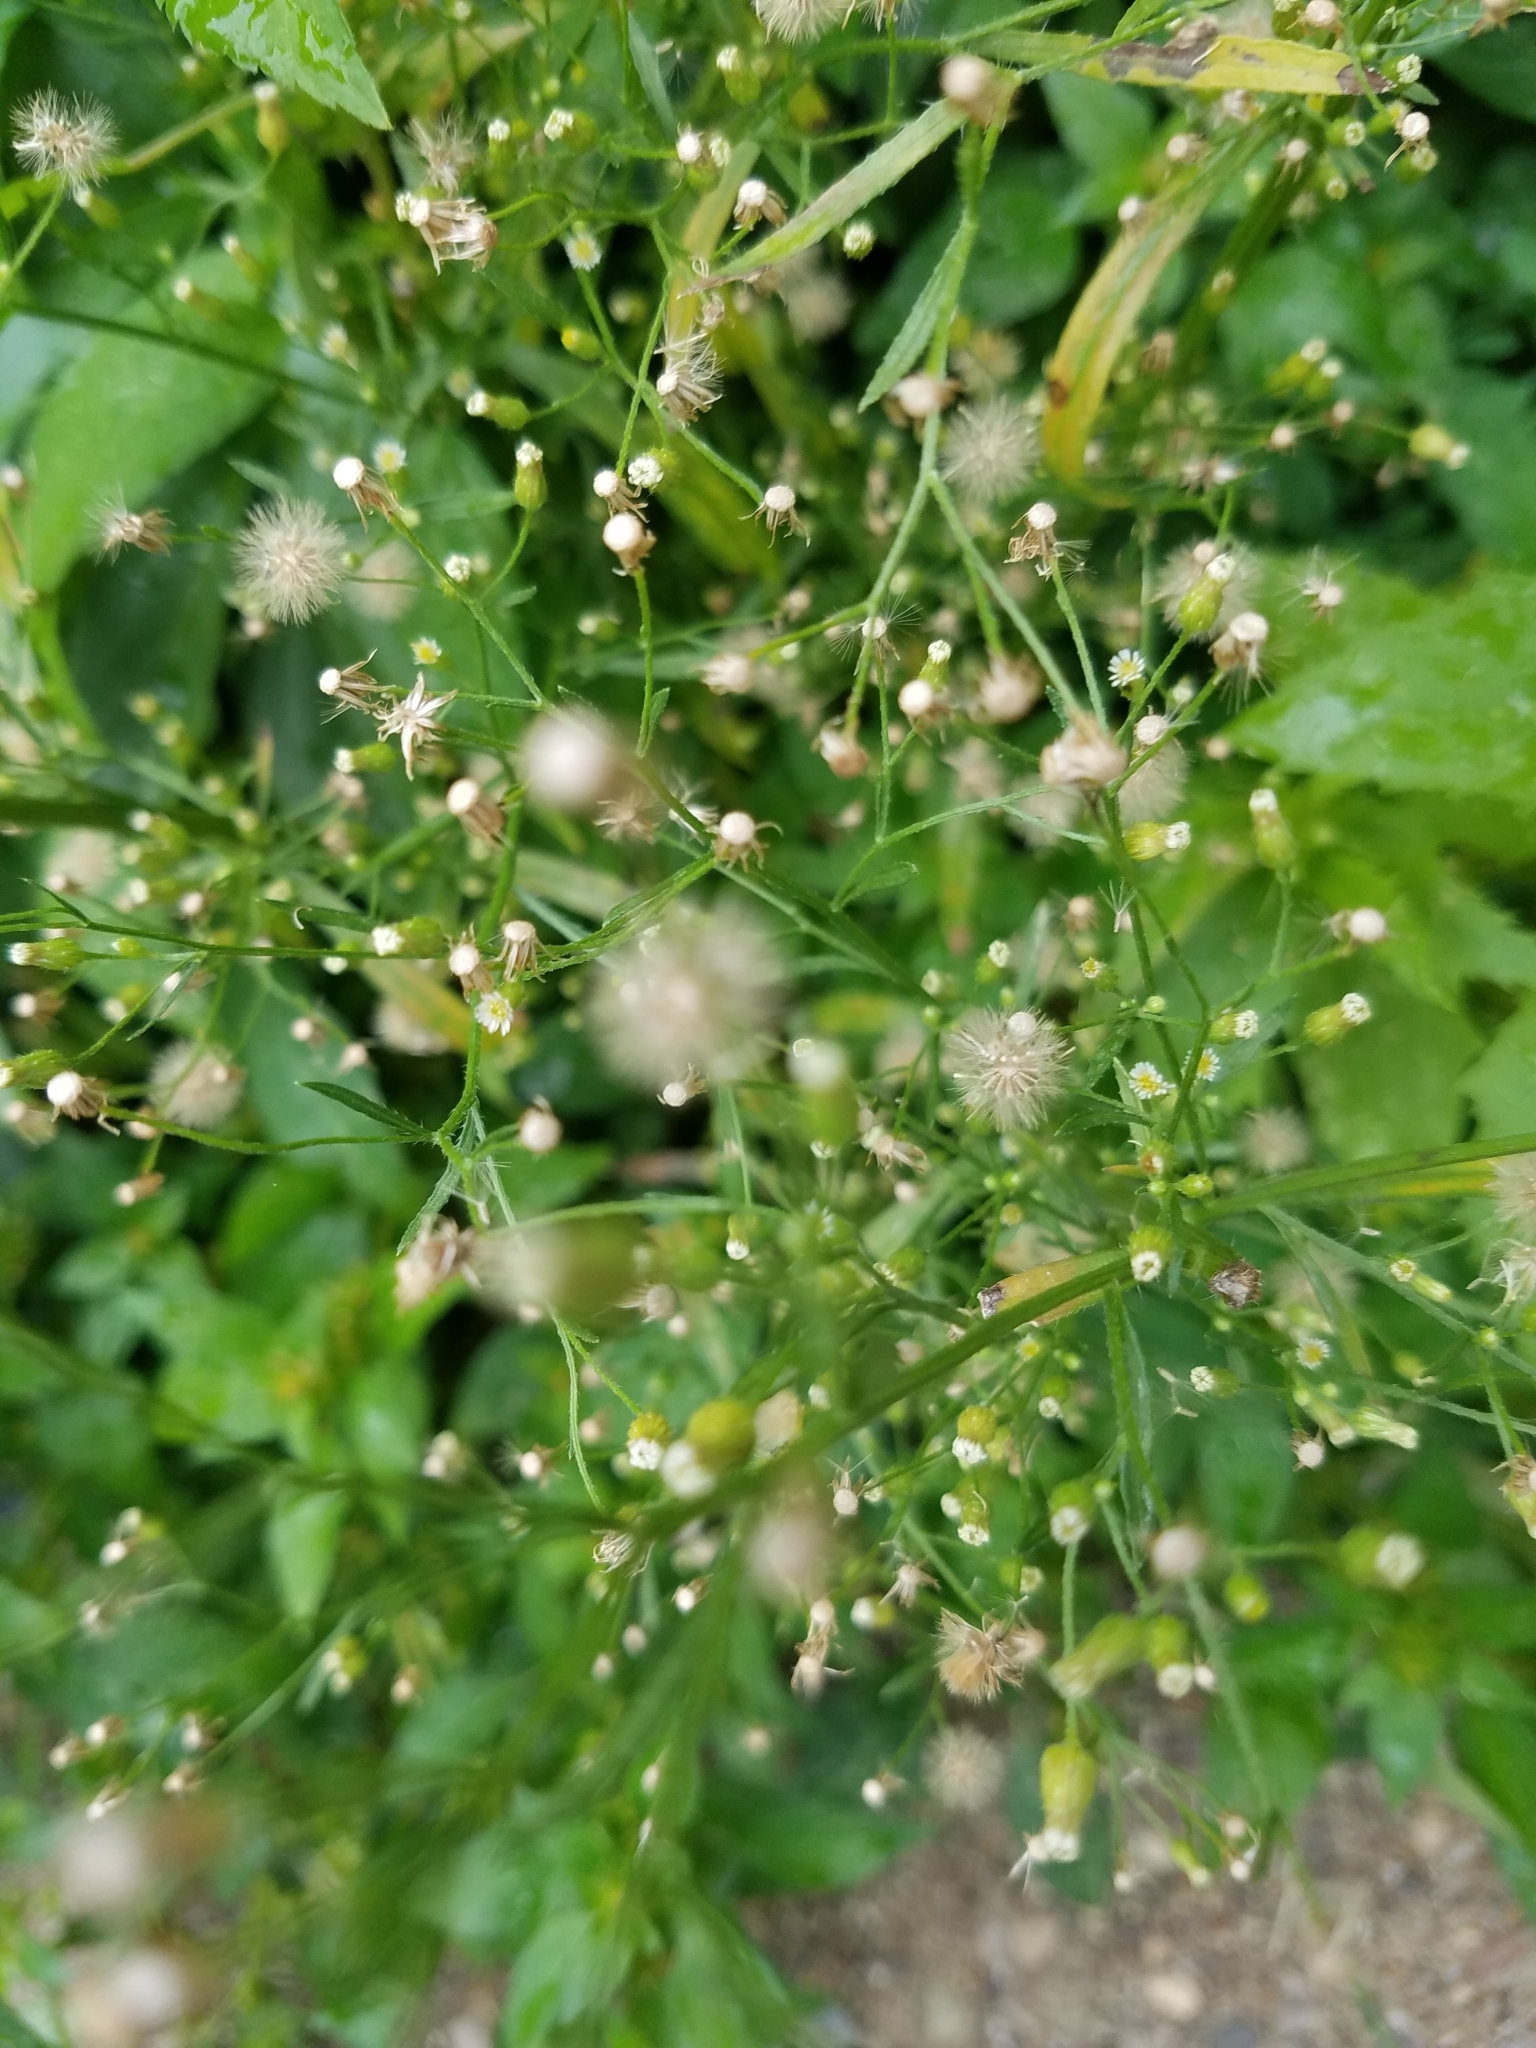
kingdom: Plantae
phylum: Tracheophyta
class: Magnoliopsida
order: Asterales
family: Asteraceae
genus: Erigeron
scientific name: Erigeron canadensis
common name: Canadian fleabane
